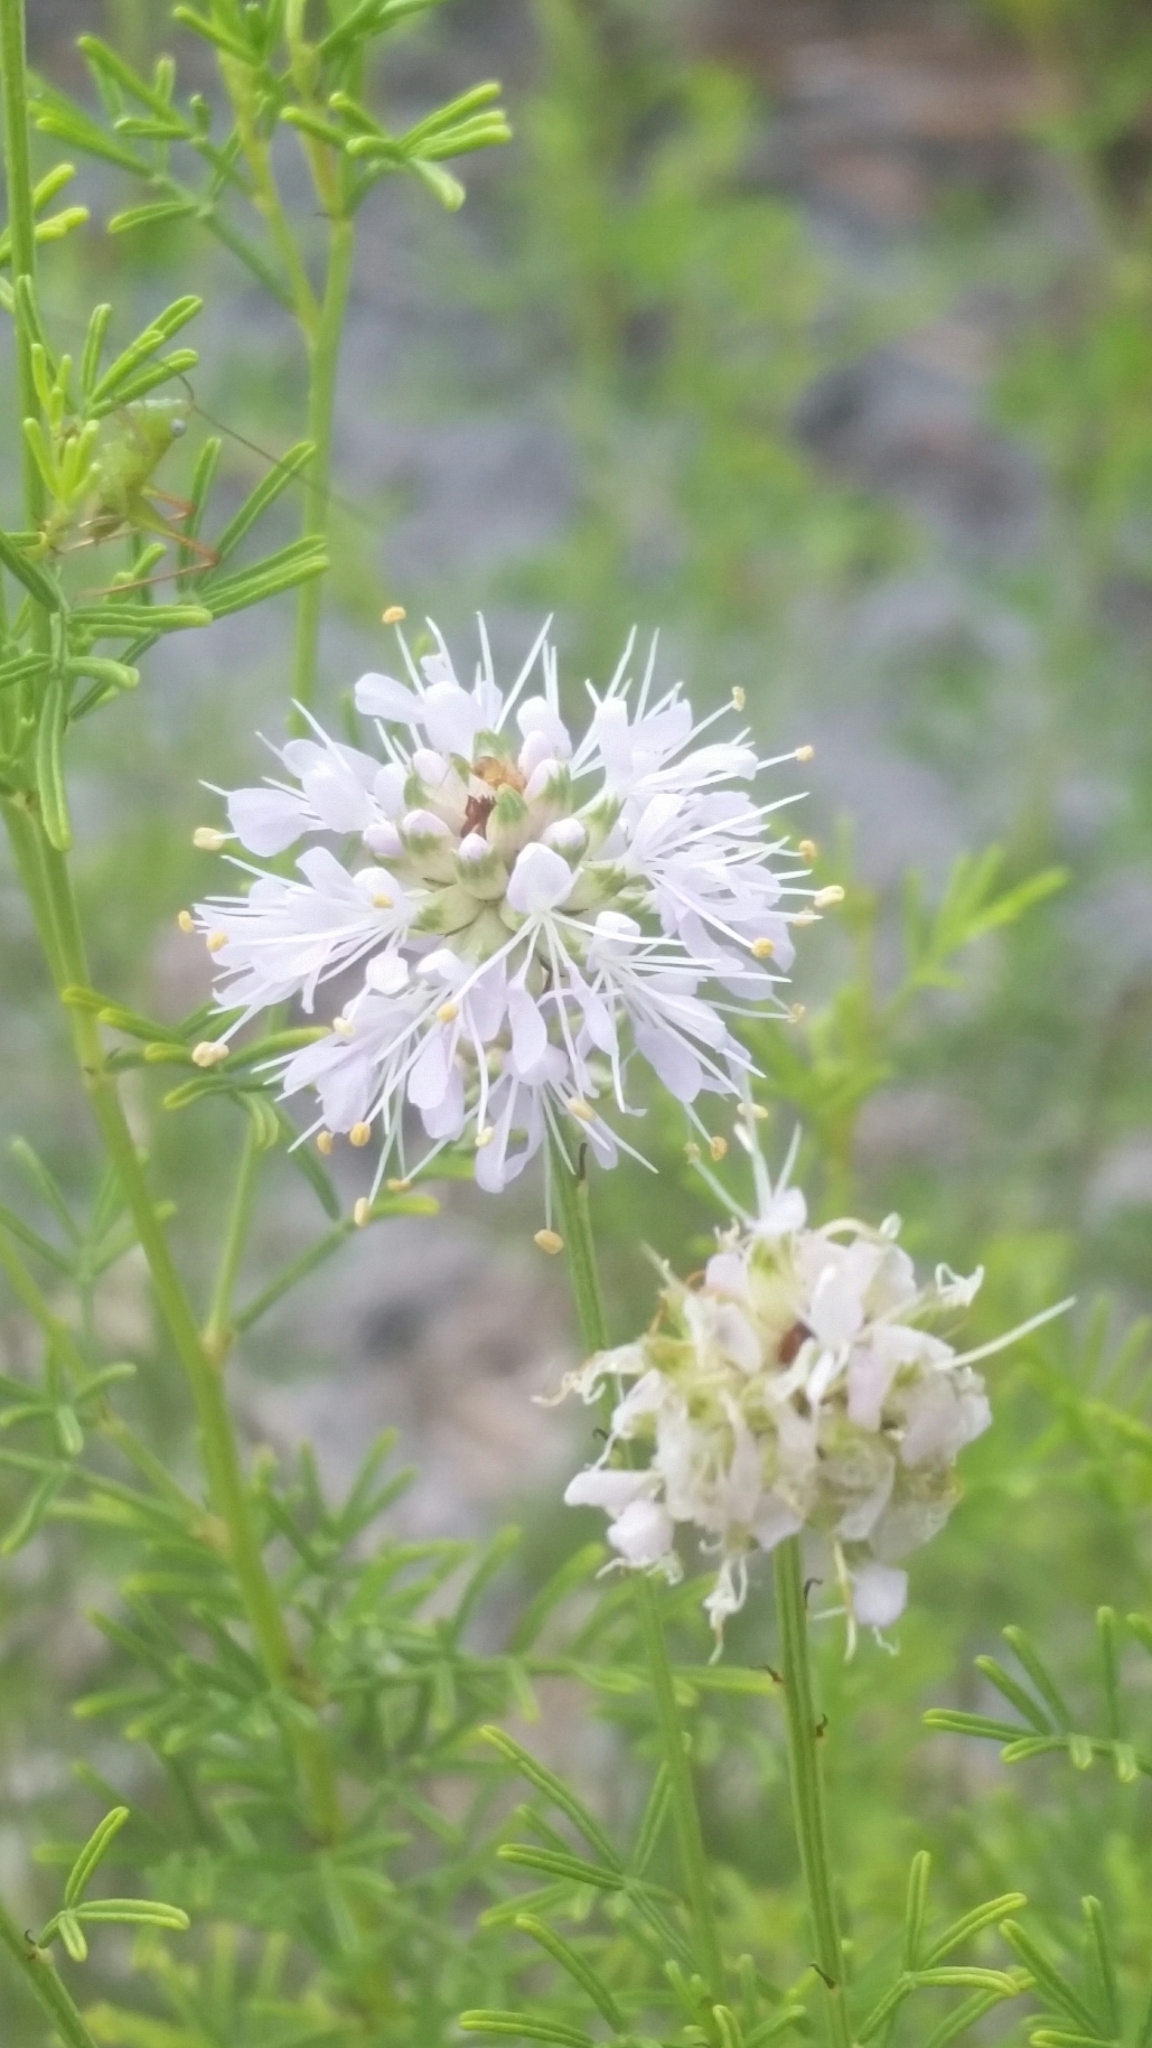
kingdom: Plantae
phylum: Tracheophyta
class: Magnoliopsida
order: Fabales
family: Fabaceae
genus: Dalea
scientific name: Dalea feayi
